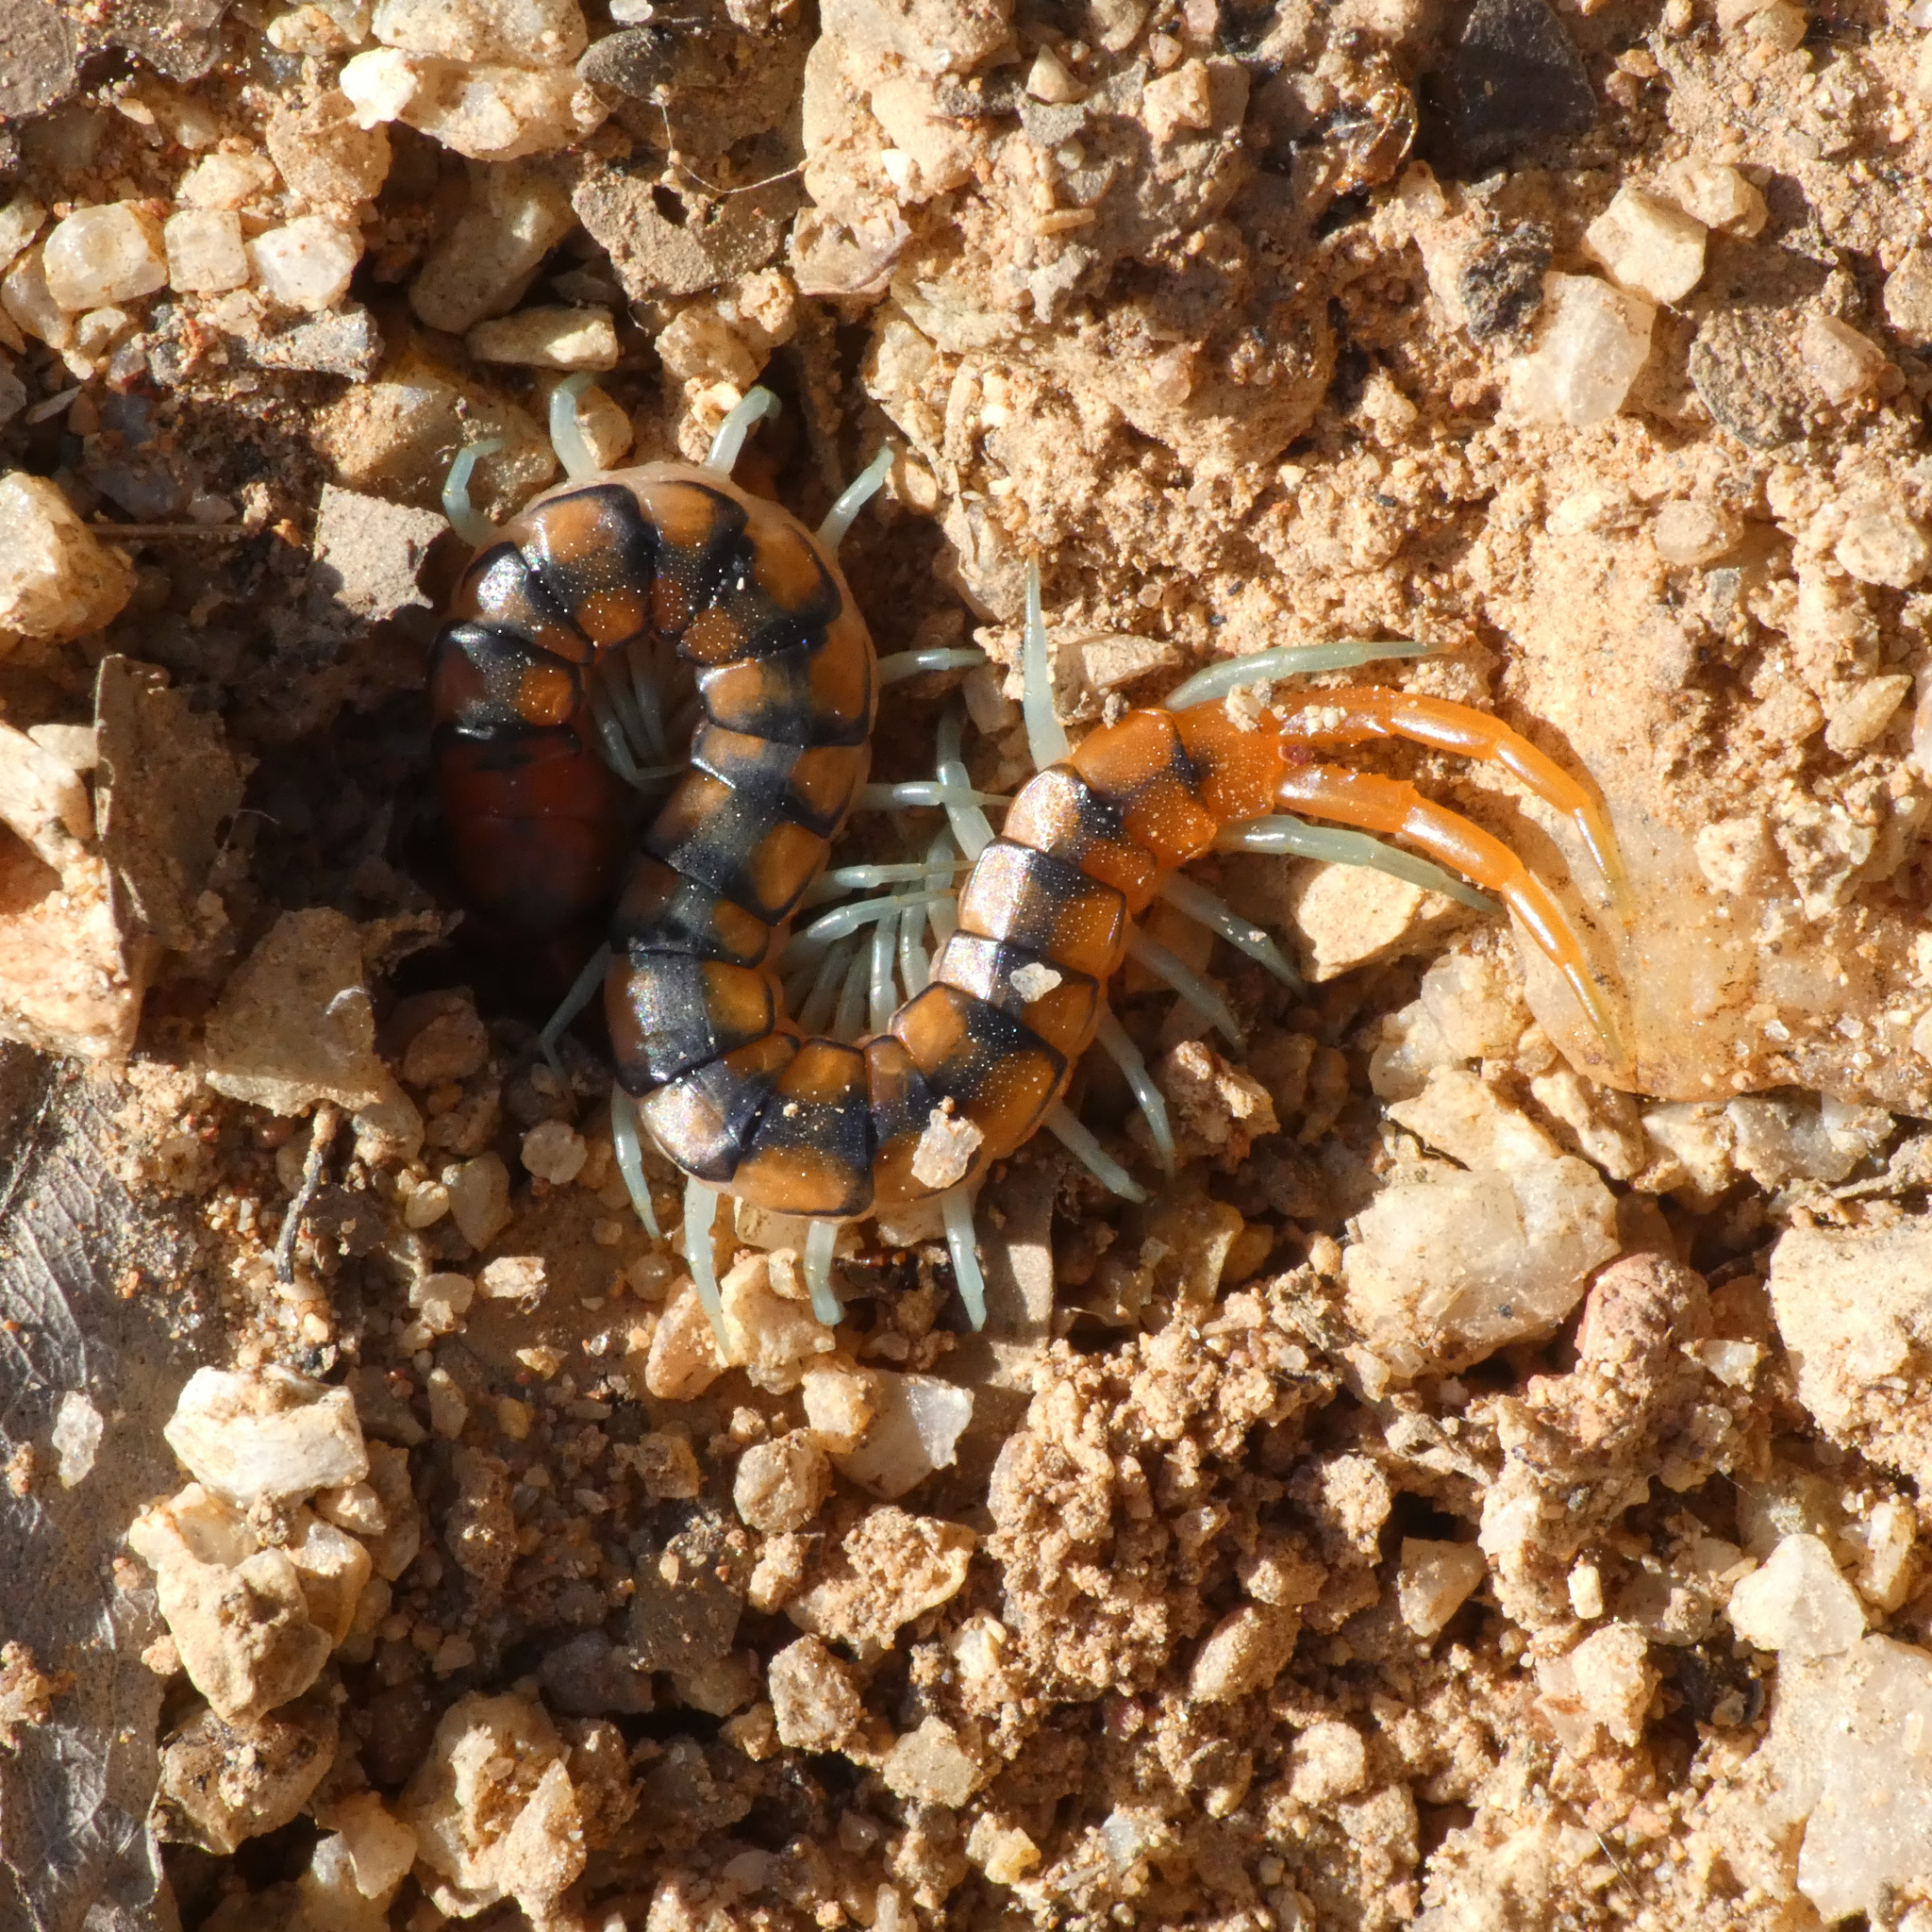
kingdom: Animalia
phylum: Arthropoda
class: Chilopoda
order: Scolopendromorpha
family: Scolopendridae
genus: Scolopendra
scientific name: Scolopendra morsitans
